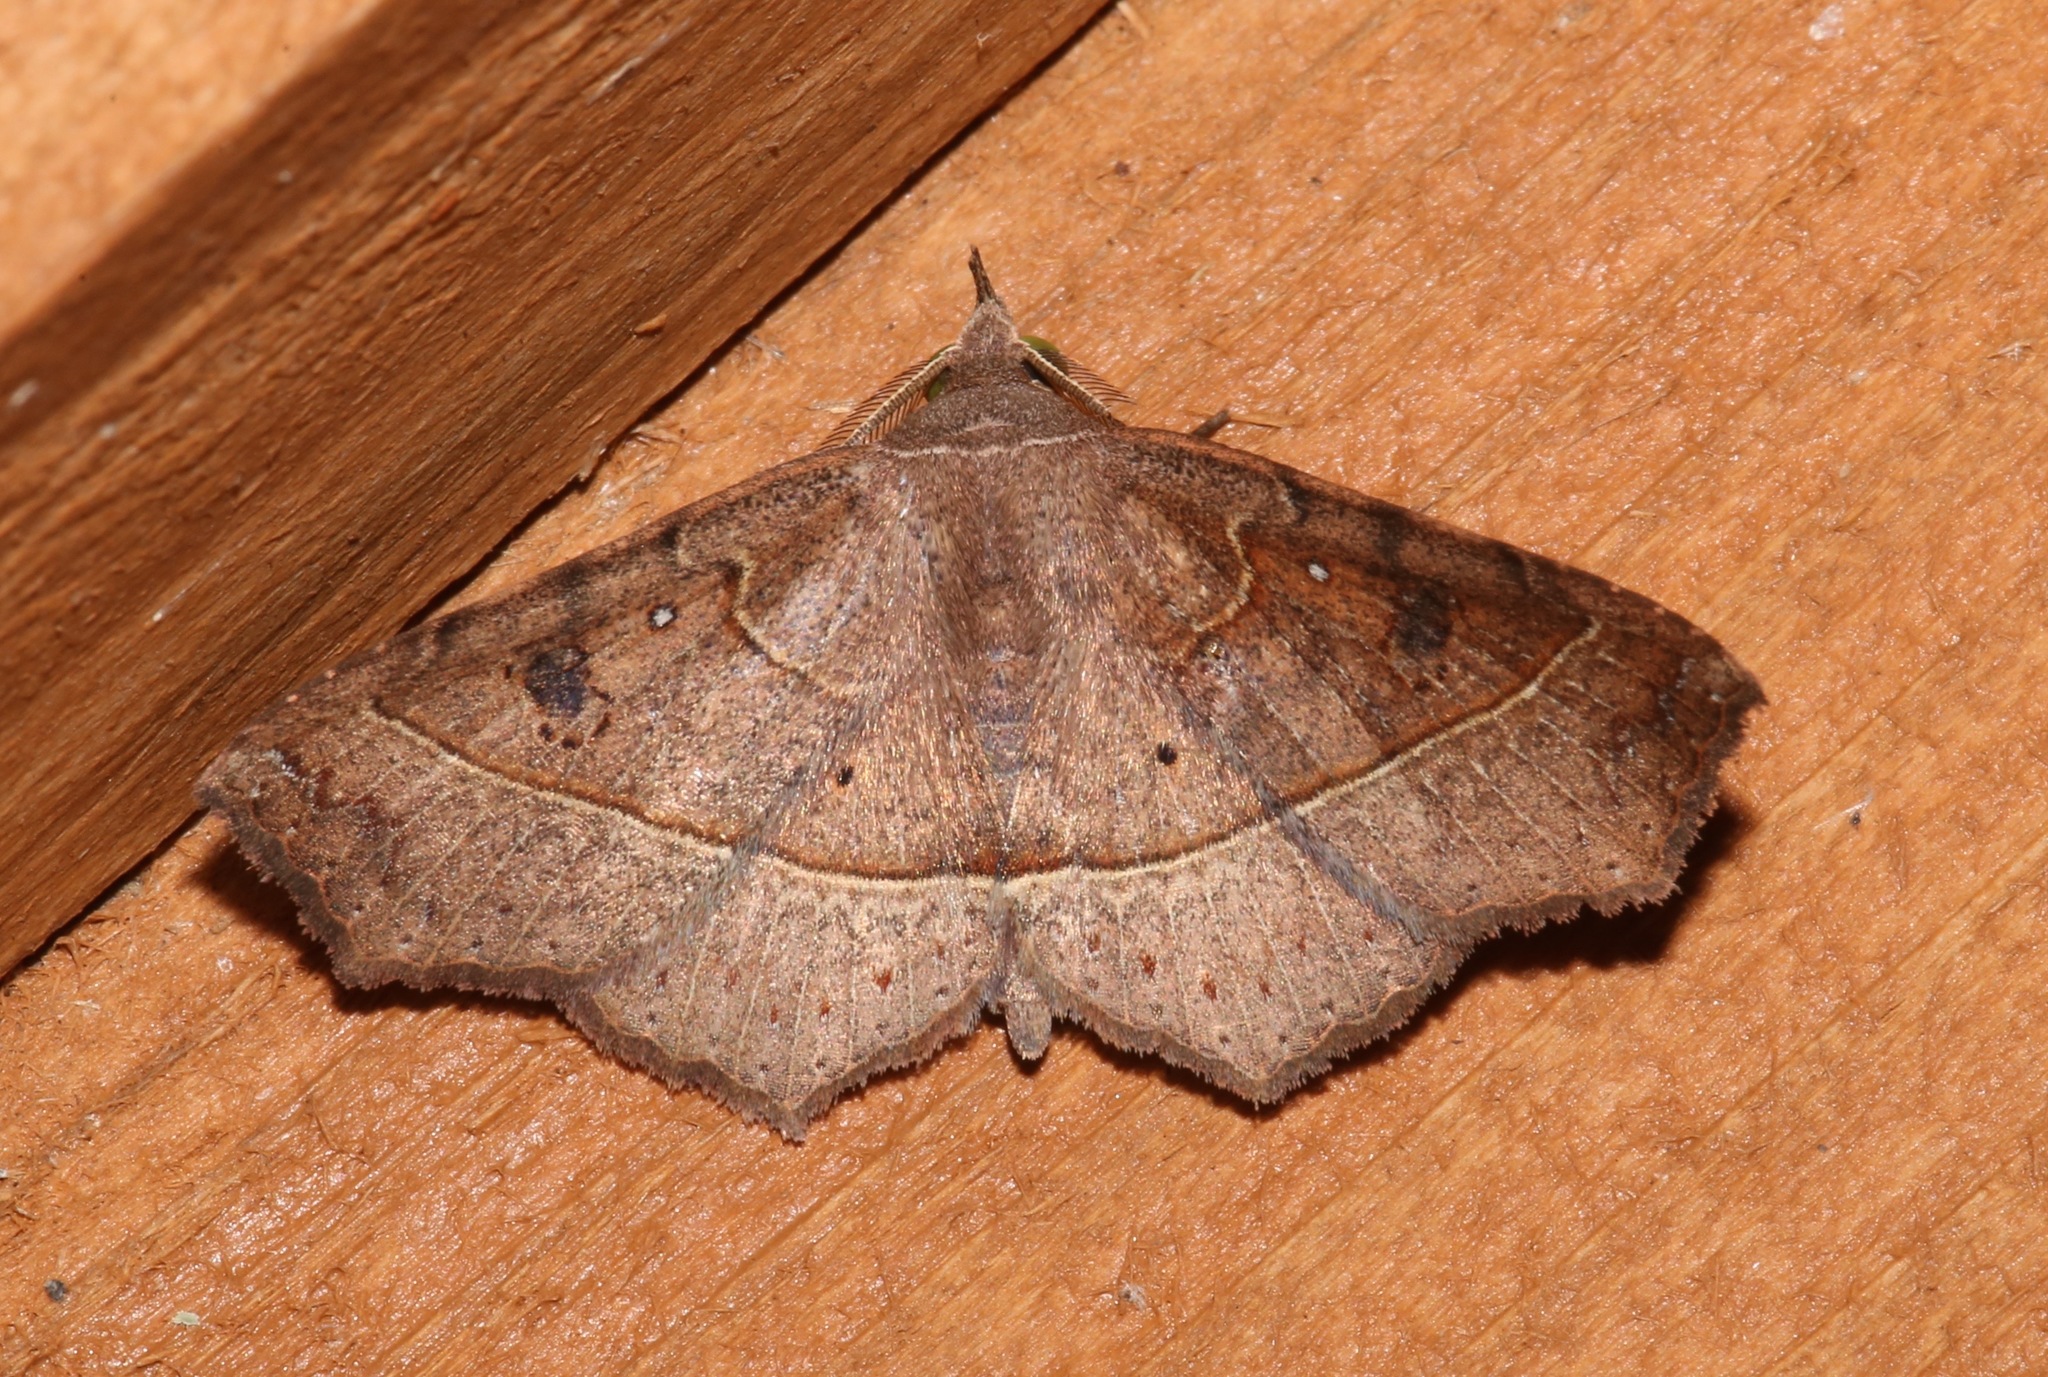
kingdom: Animalia
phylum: Arthropoda
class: Insecta
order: Lepidoptera
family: Erebidae
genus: Ephyrodes
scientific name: Ephyrodes cacata
